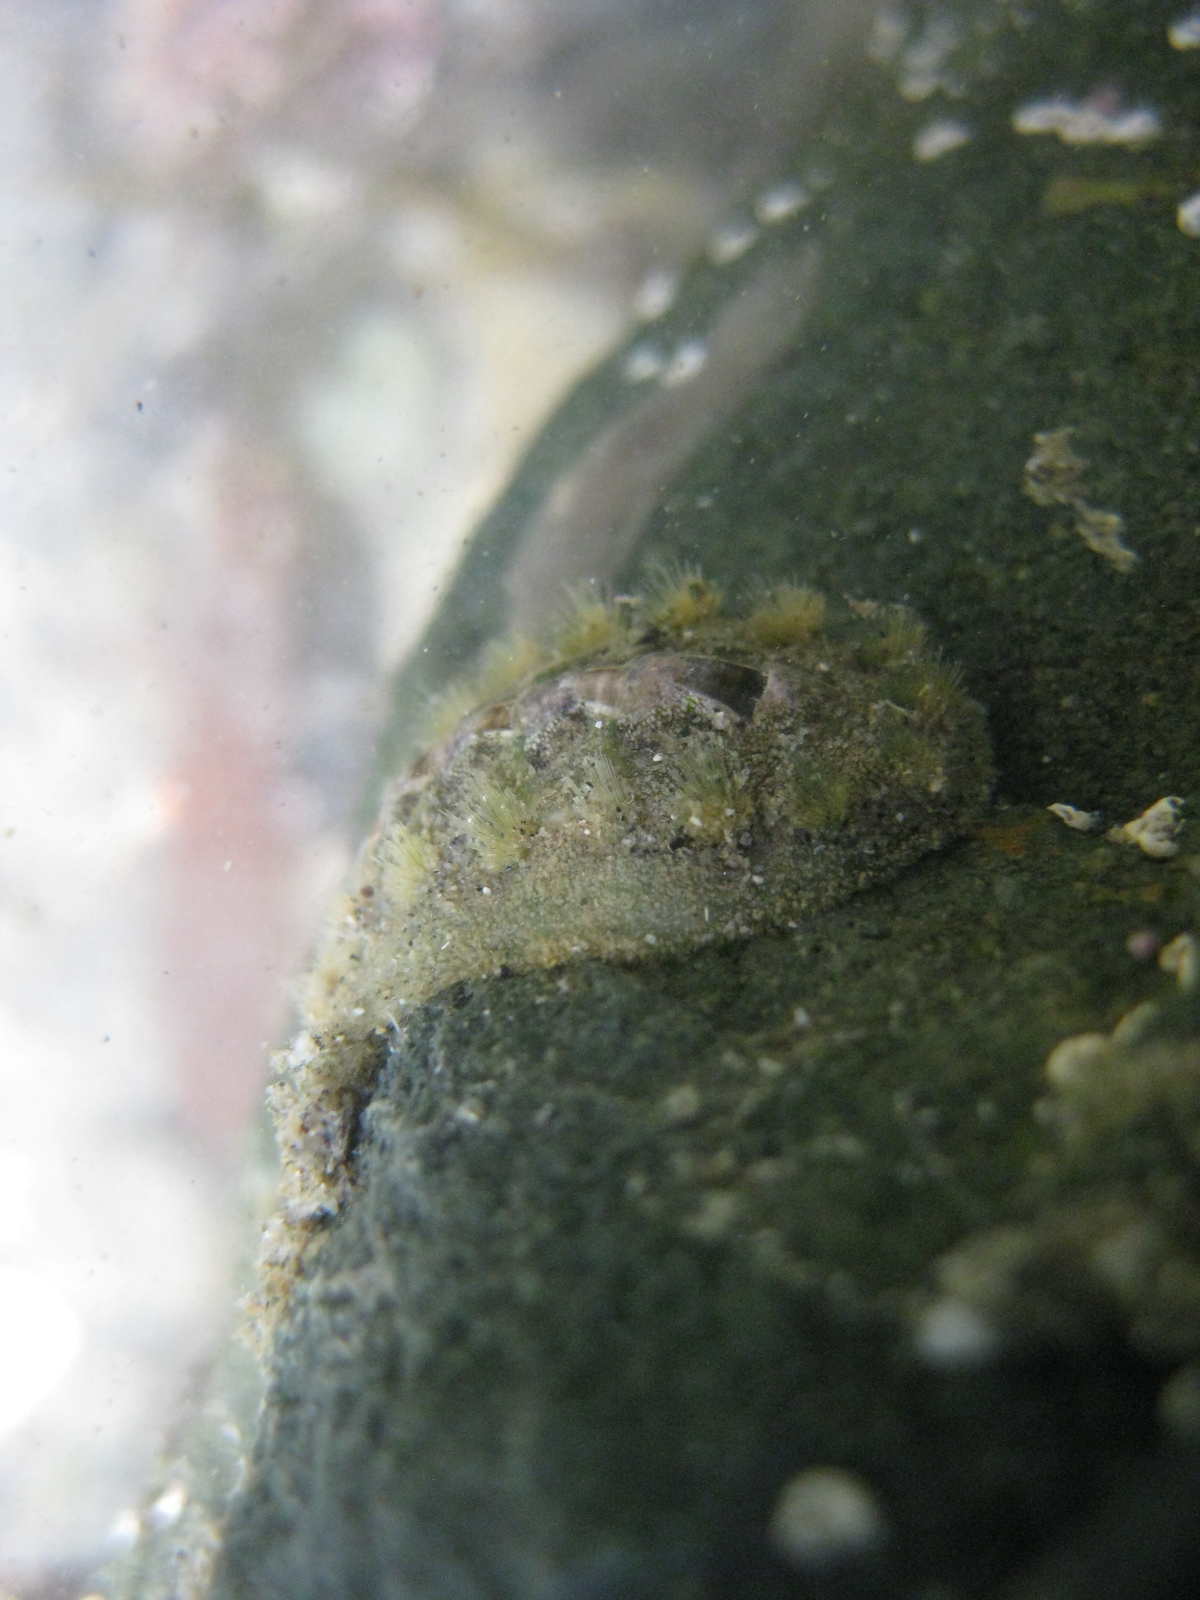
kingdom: Animalia
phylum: Mollusca
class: Polyplacophora
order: Chitonida
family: Acanthochitonidae
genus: Acanthochitona
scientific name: Acanthochitona zelandica
